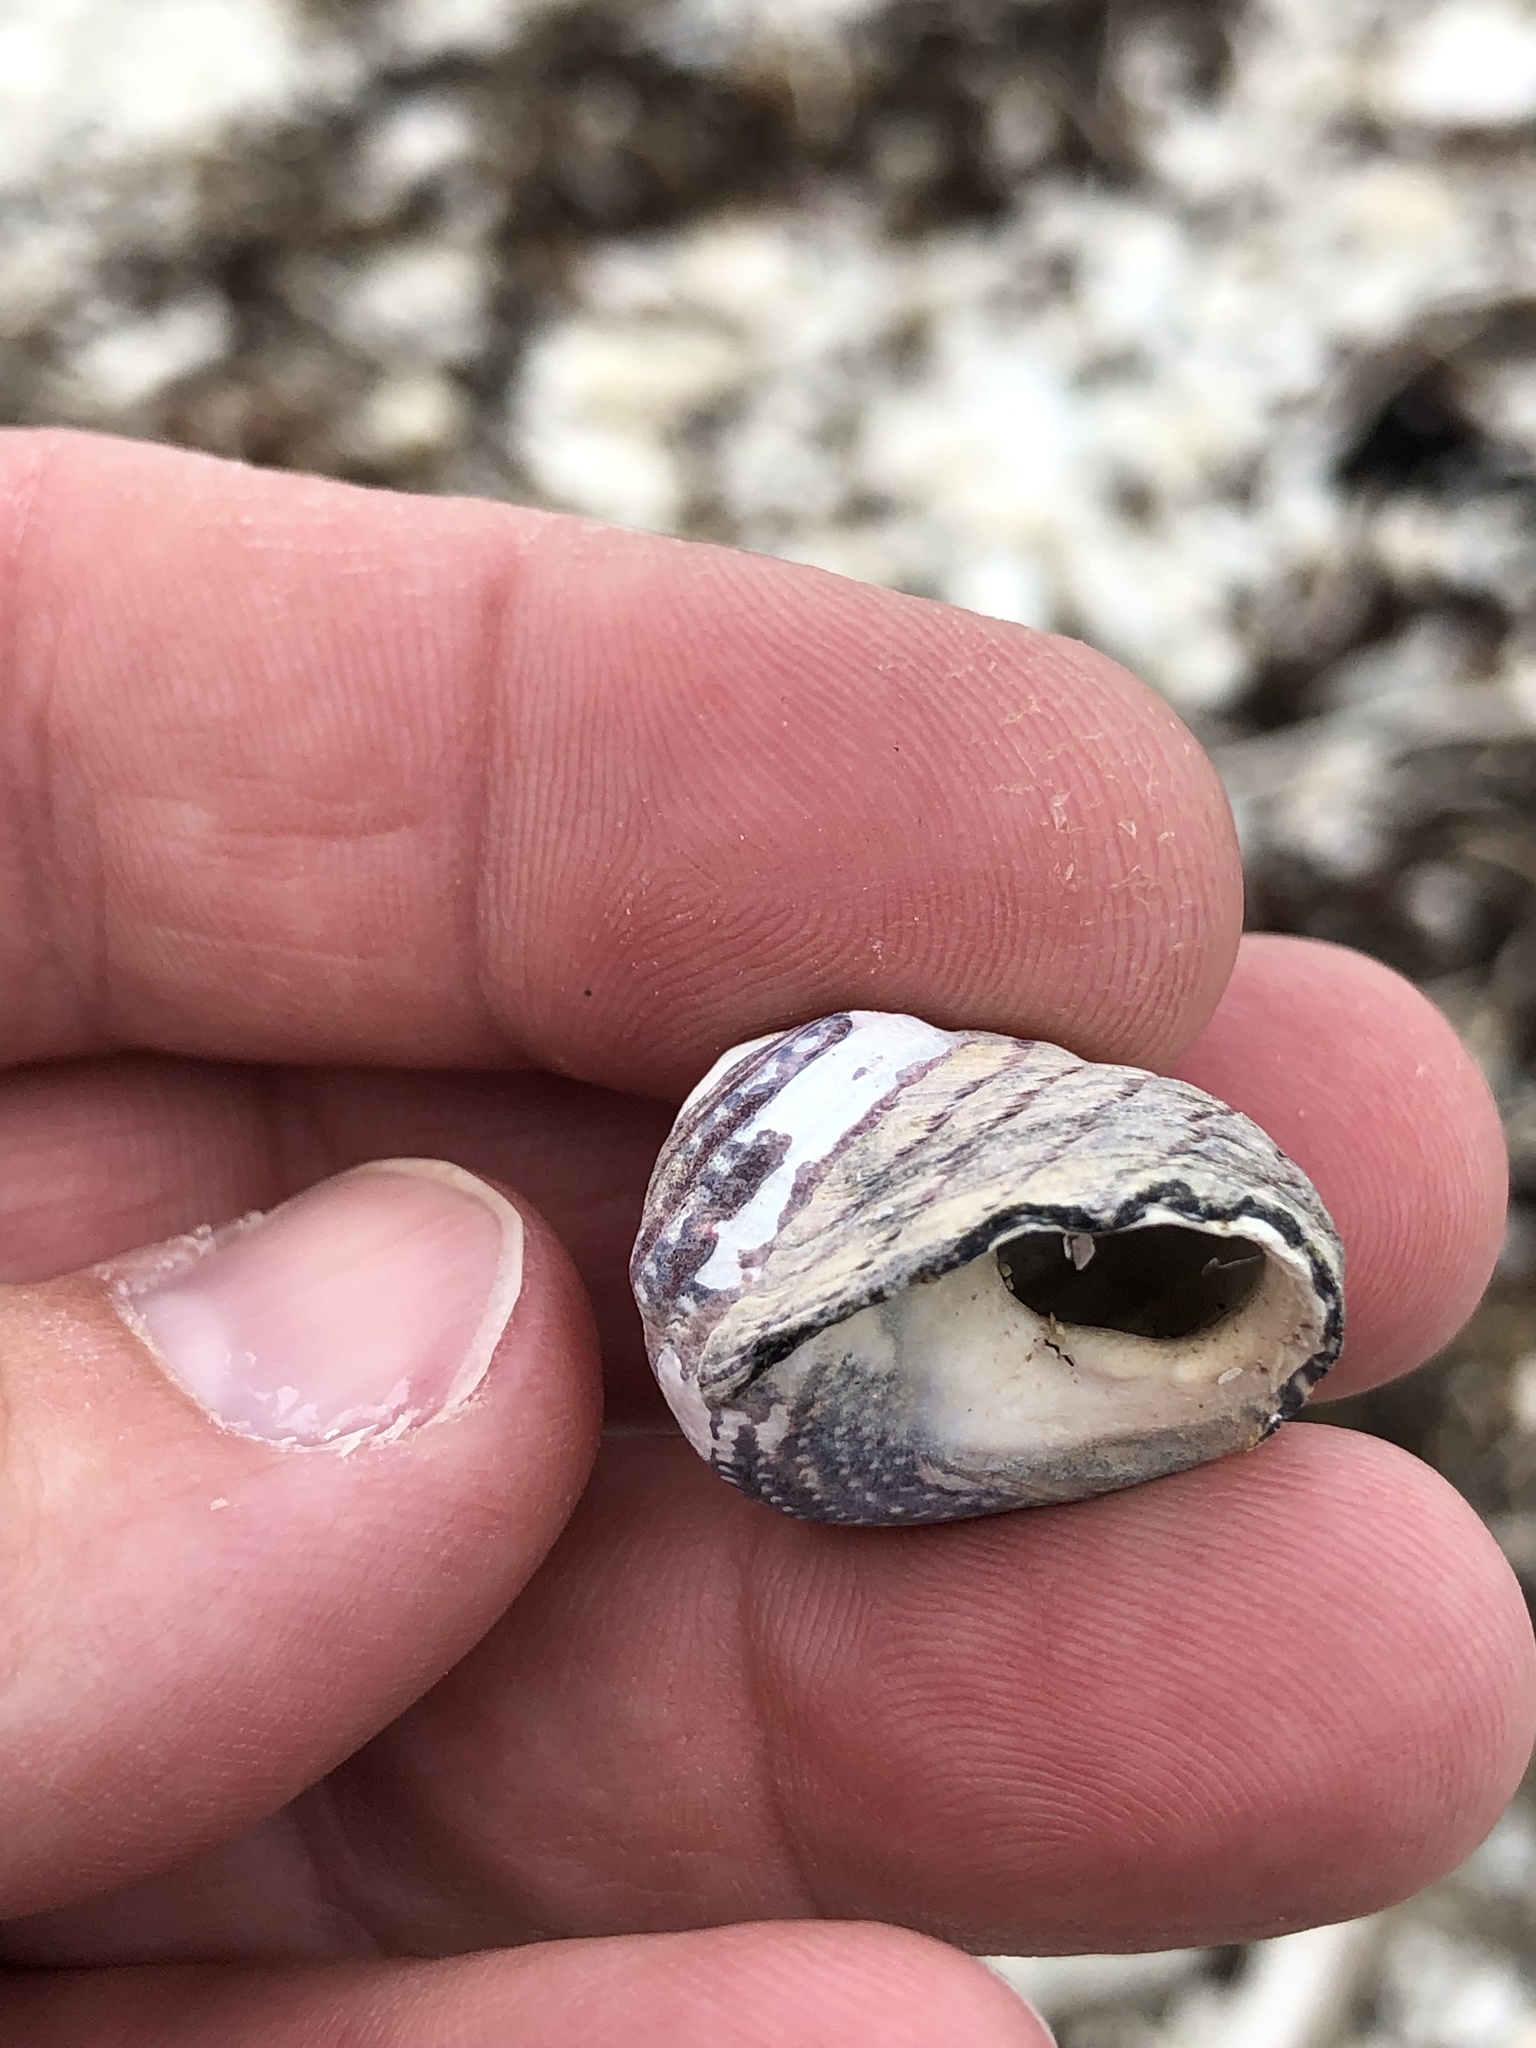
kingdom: Animalia
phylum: Mollusca
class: Gastropoda
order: Trochida
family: Trochidae
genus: Diloma
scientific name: Diloma aethiops
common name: Scorched monodont
